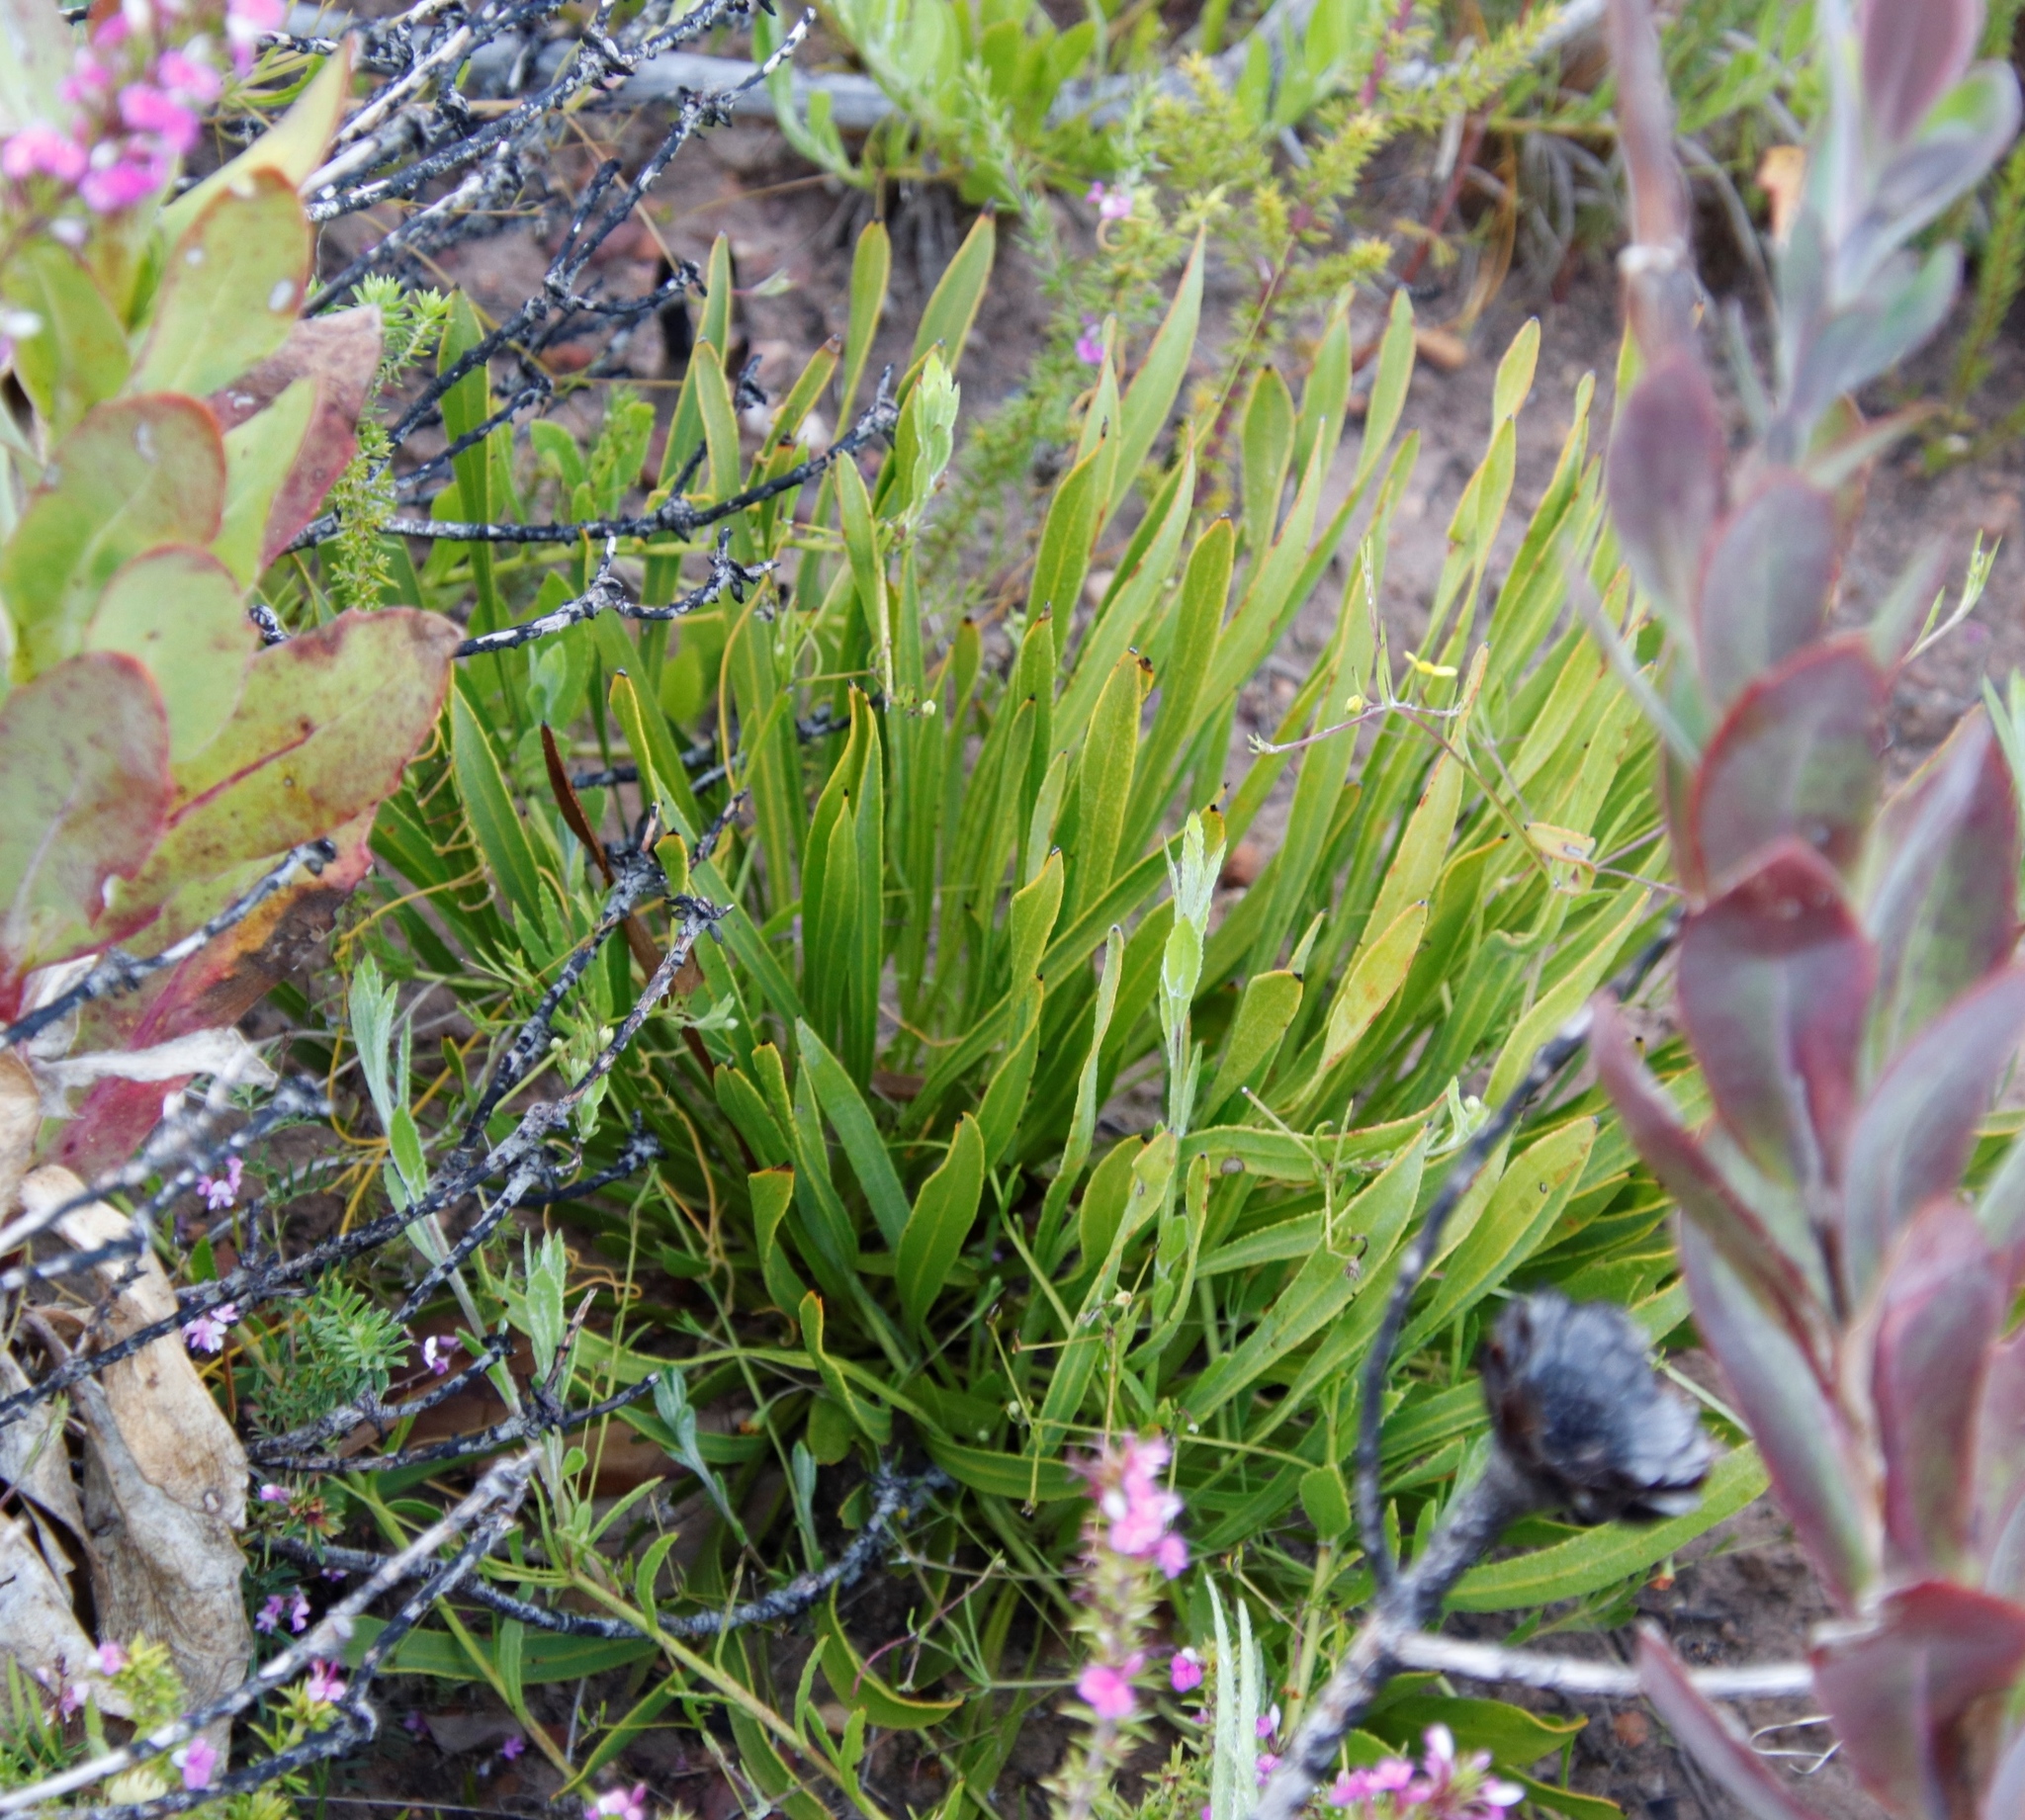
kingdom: Plantae
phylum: Tracheophyta
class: Magnoliopsida
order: Proteales
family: Proteaceae
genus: Protea
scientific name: Protea scabra
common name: Sandpaper-leaf sugarbush
